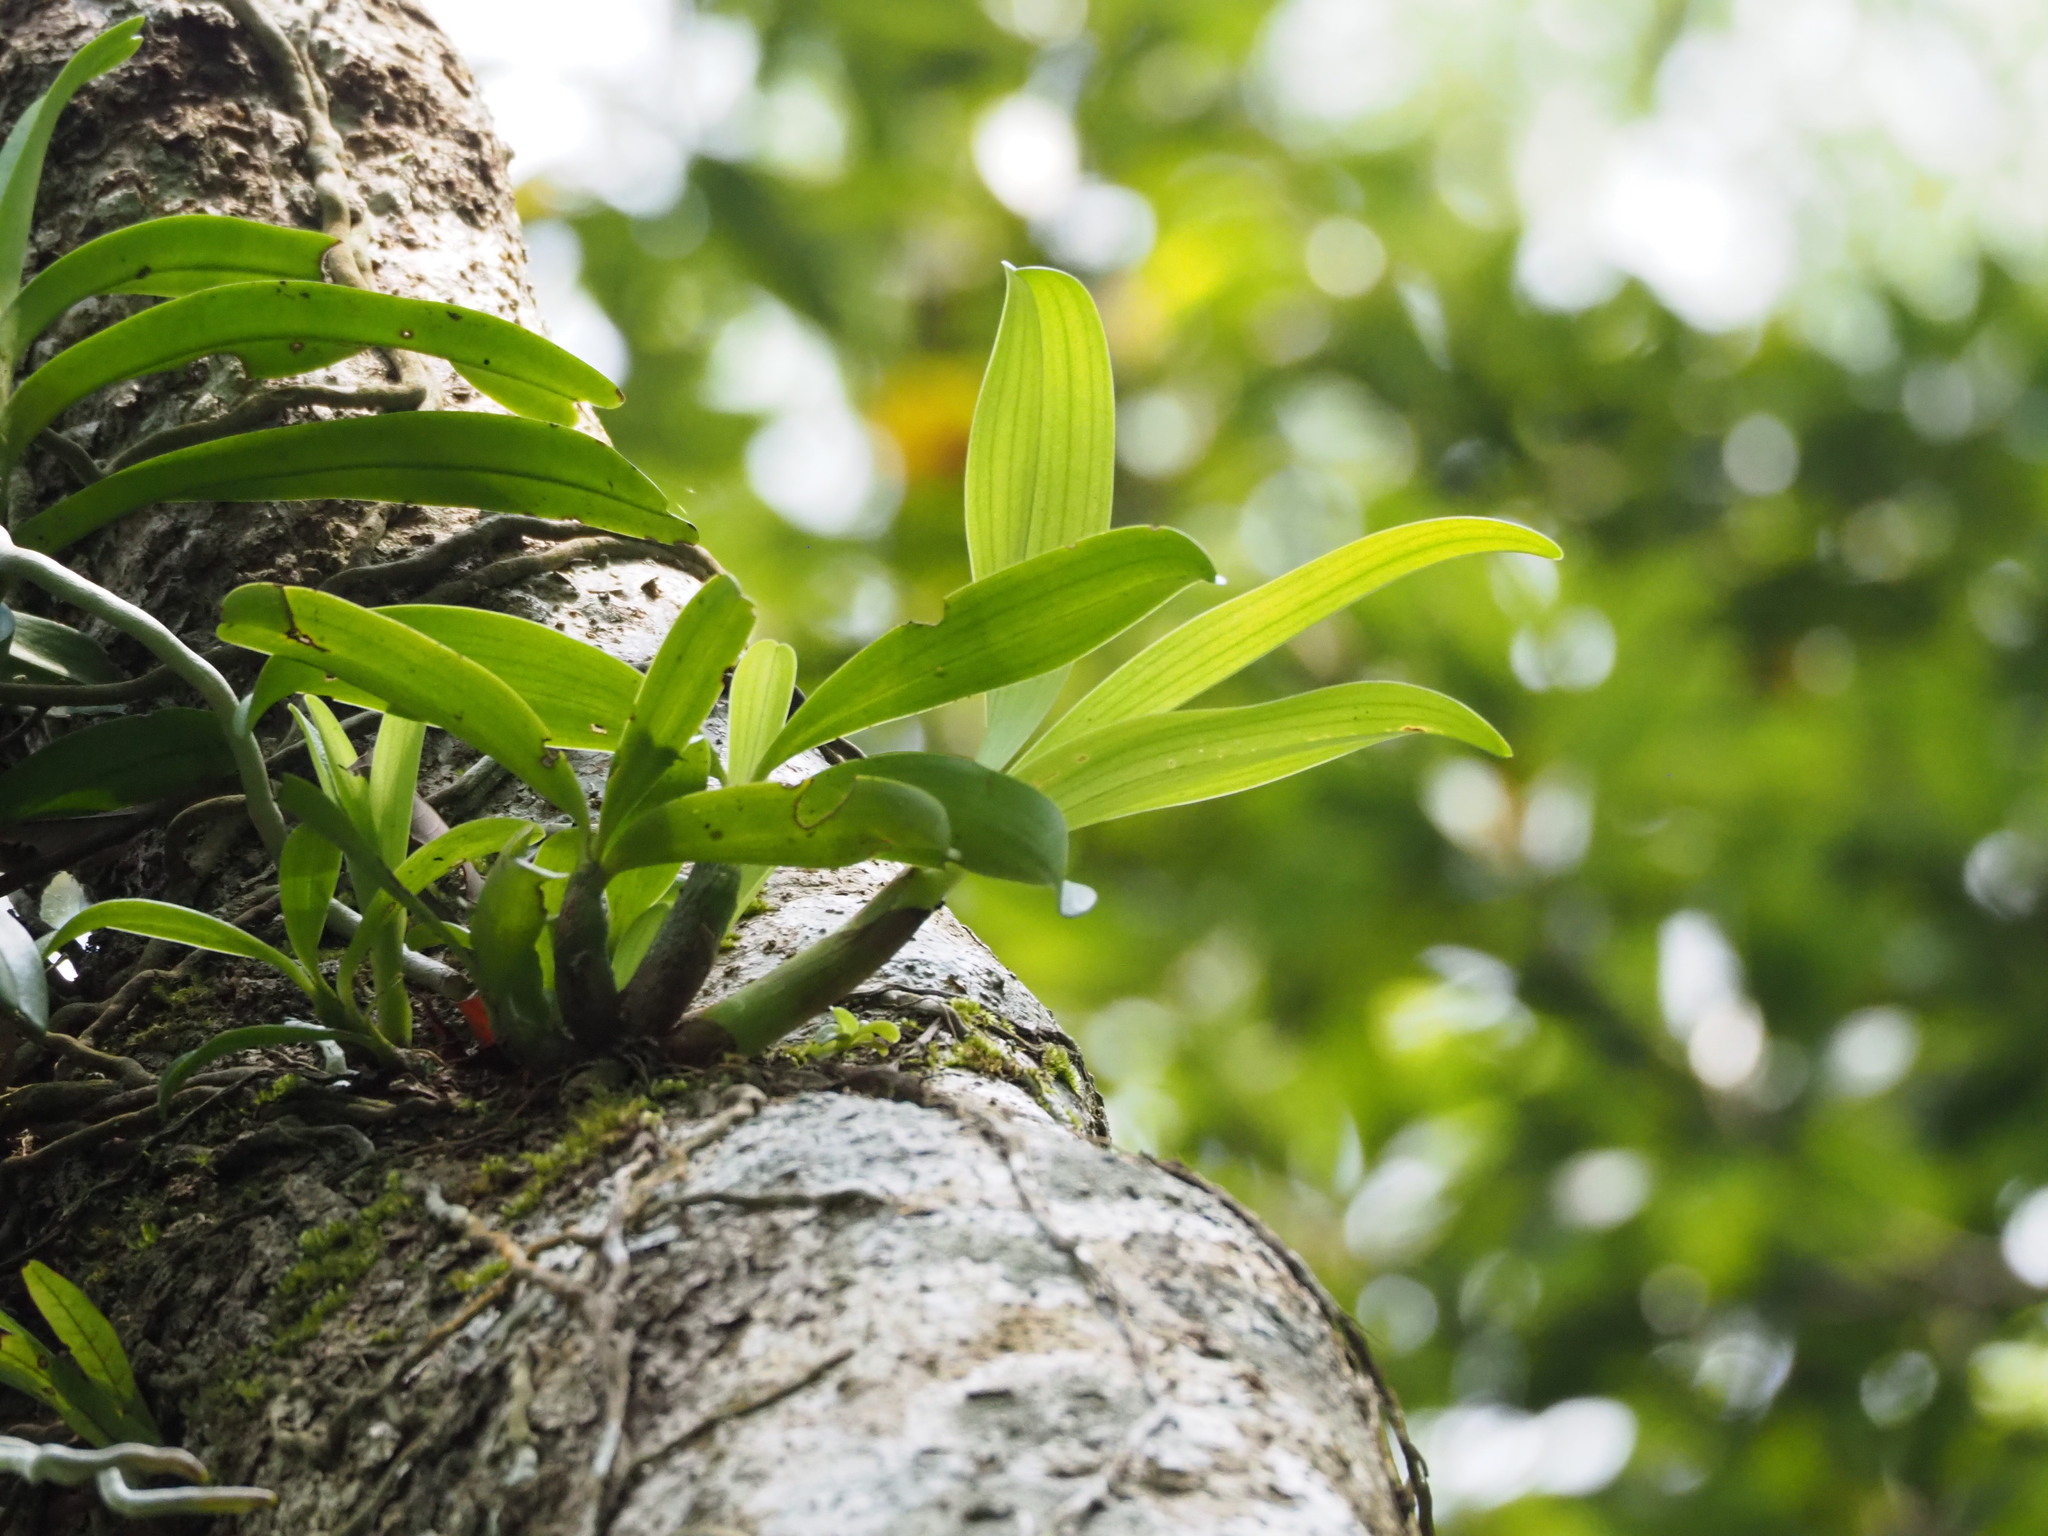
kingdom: Plantae
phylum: Tracheophyta
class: Liliopsida
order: Asparagales
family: Orchidaceae
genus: Pinalia
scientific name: Pinalia ovata
